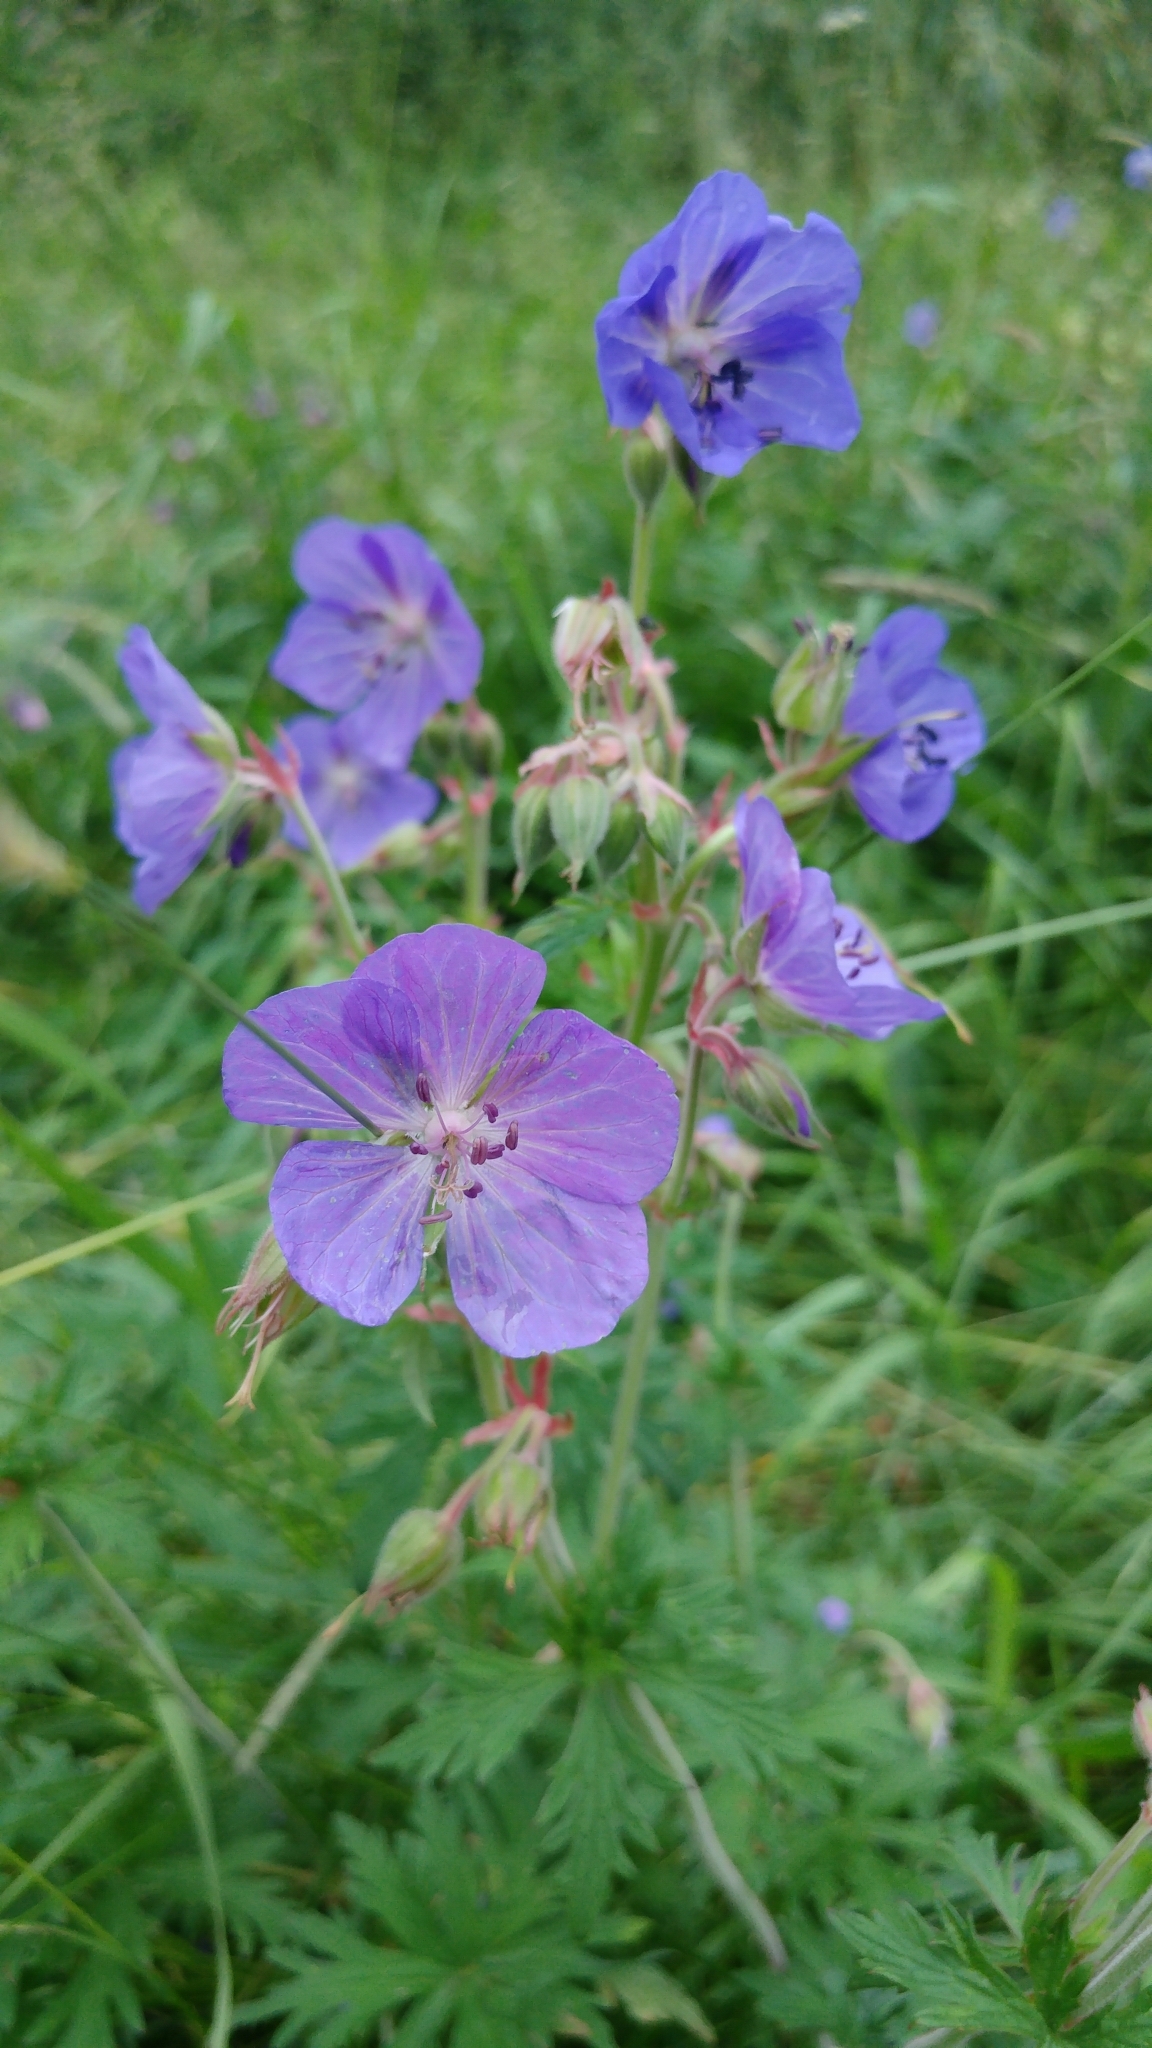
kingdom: Plantae
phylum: Tracheophyta
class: Magnoliopsida
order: Geraniales
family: Geraniaceae
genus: Geranium
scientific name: Geranium pratense
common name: Meadow crane's-bill
